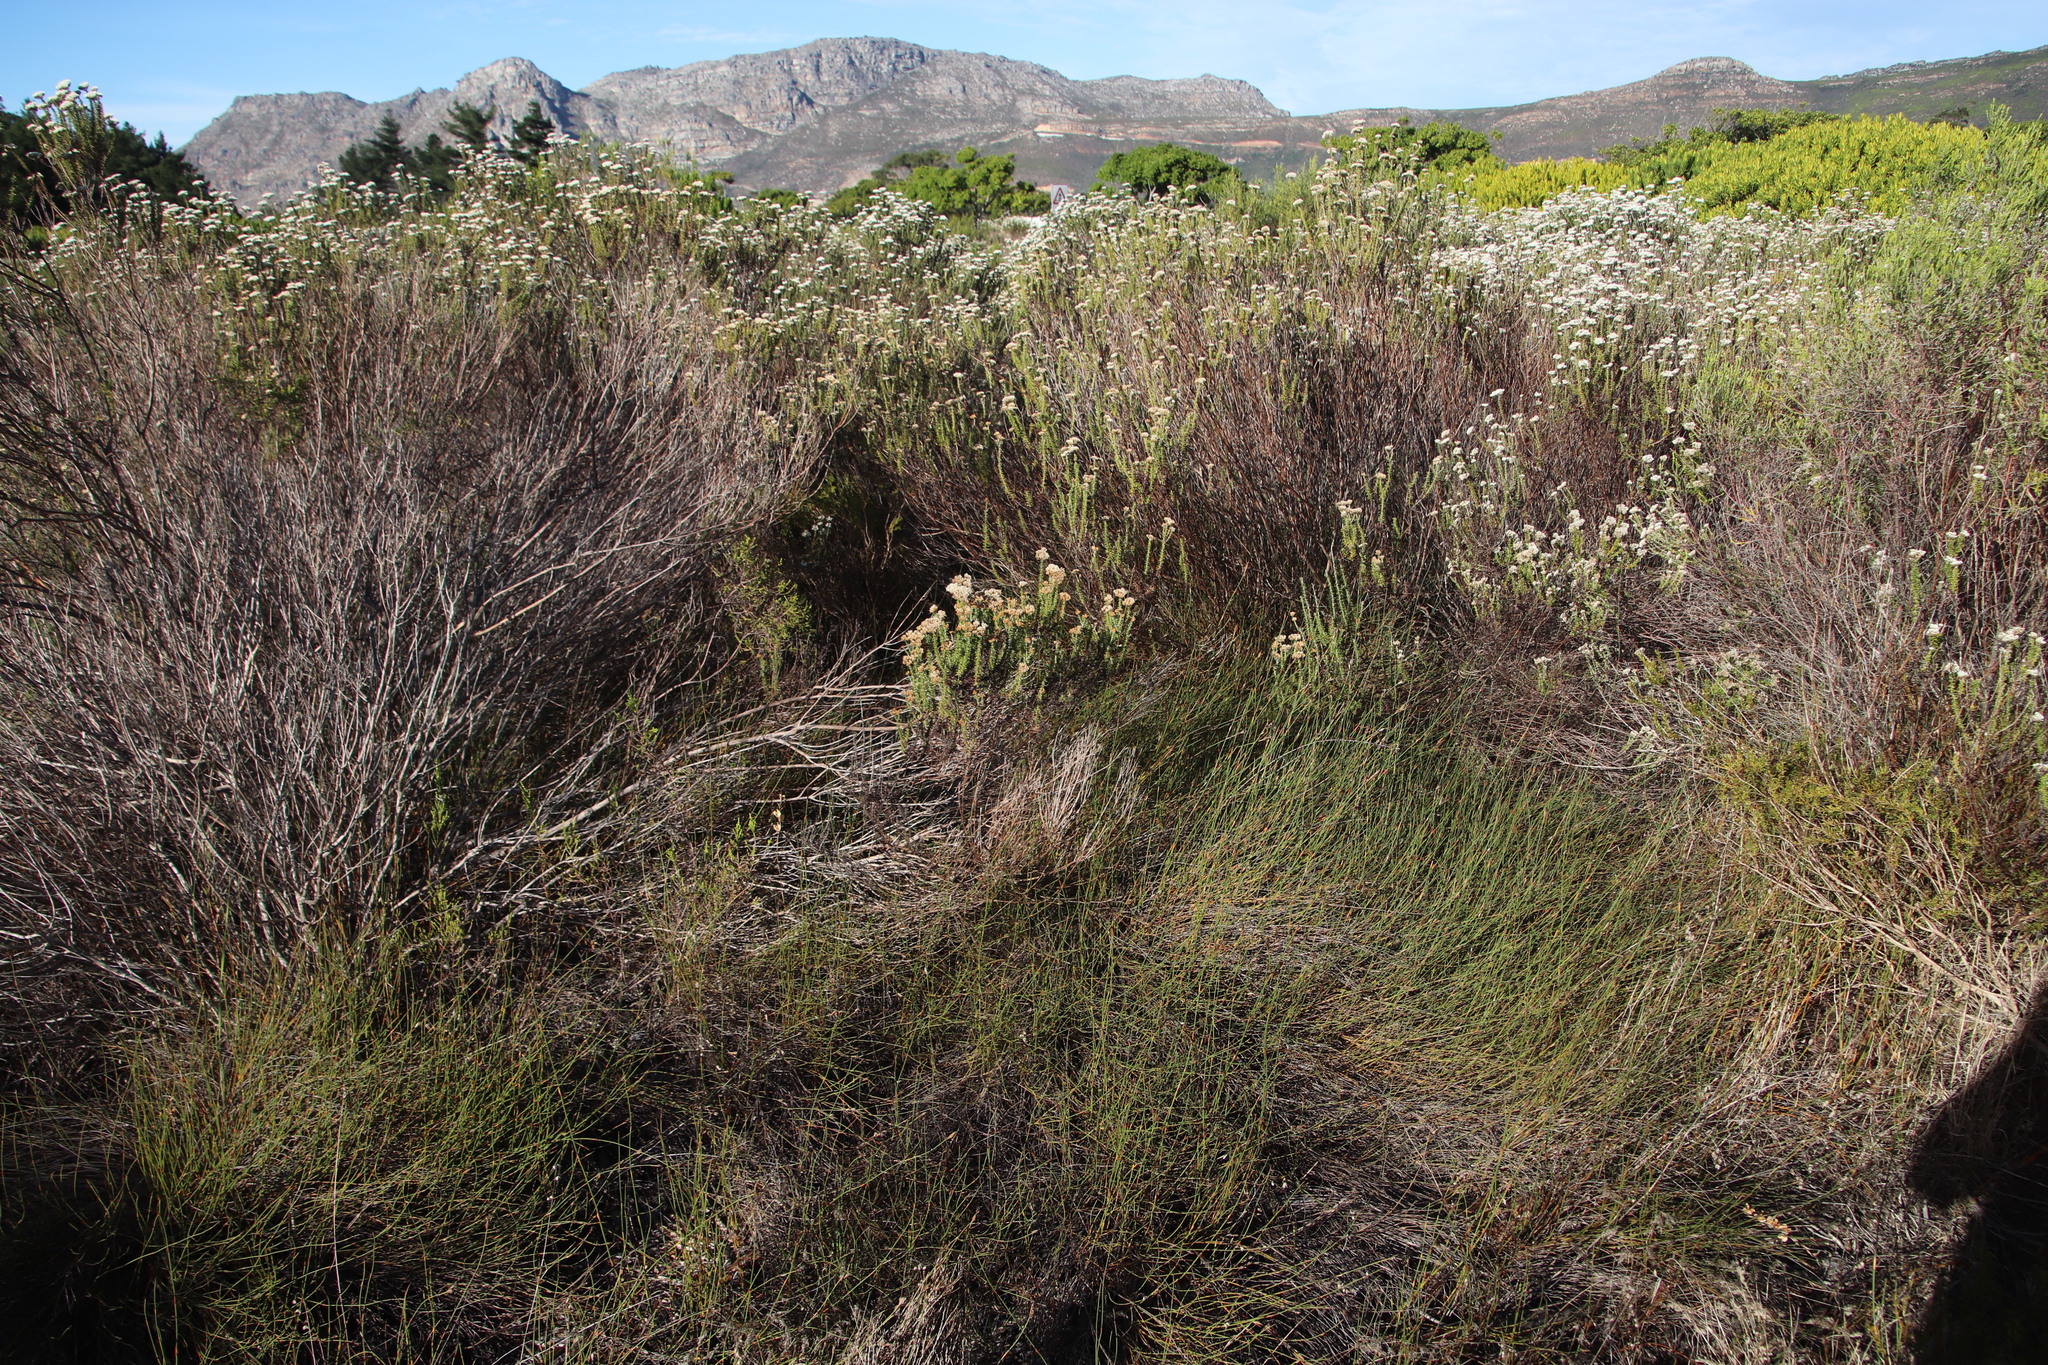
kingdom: Plantae
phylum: Tracheophyta
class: Liliopsida
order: Poales
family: Restionaceae
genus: Willdenowia
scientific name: Willdenowia sulcata
